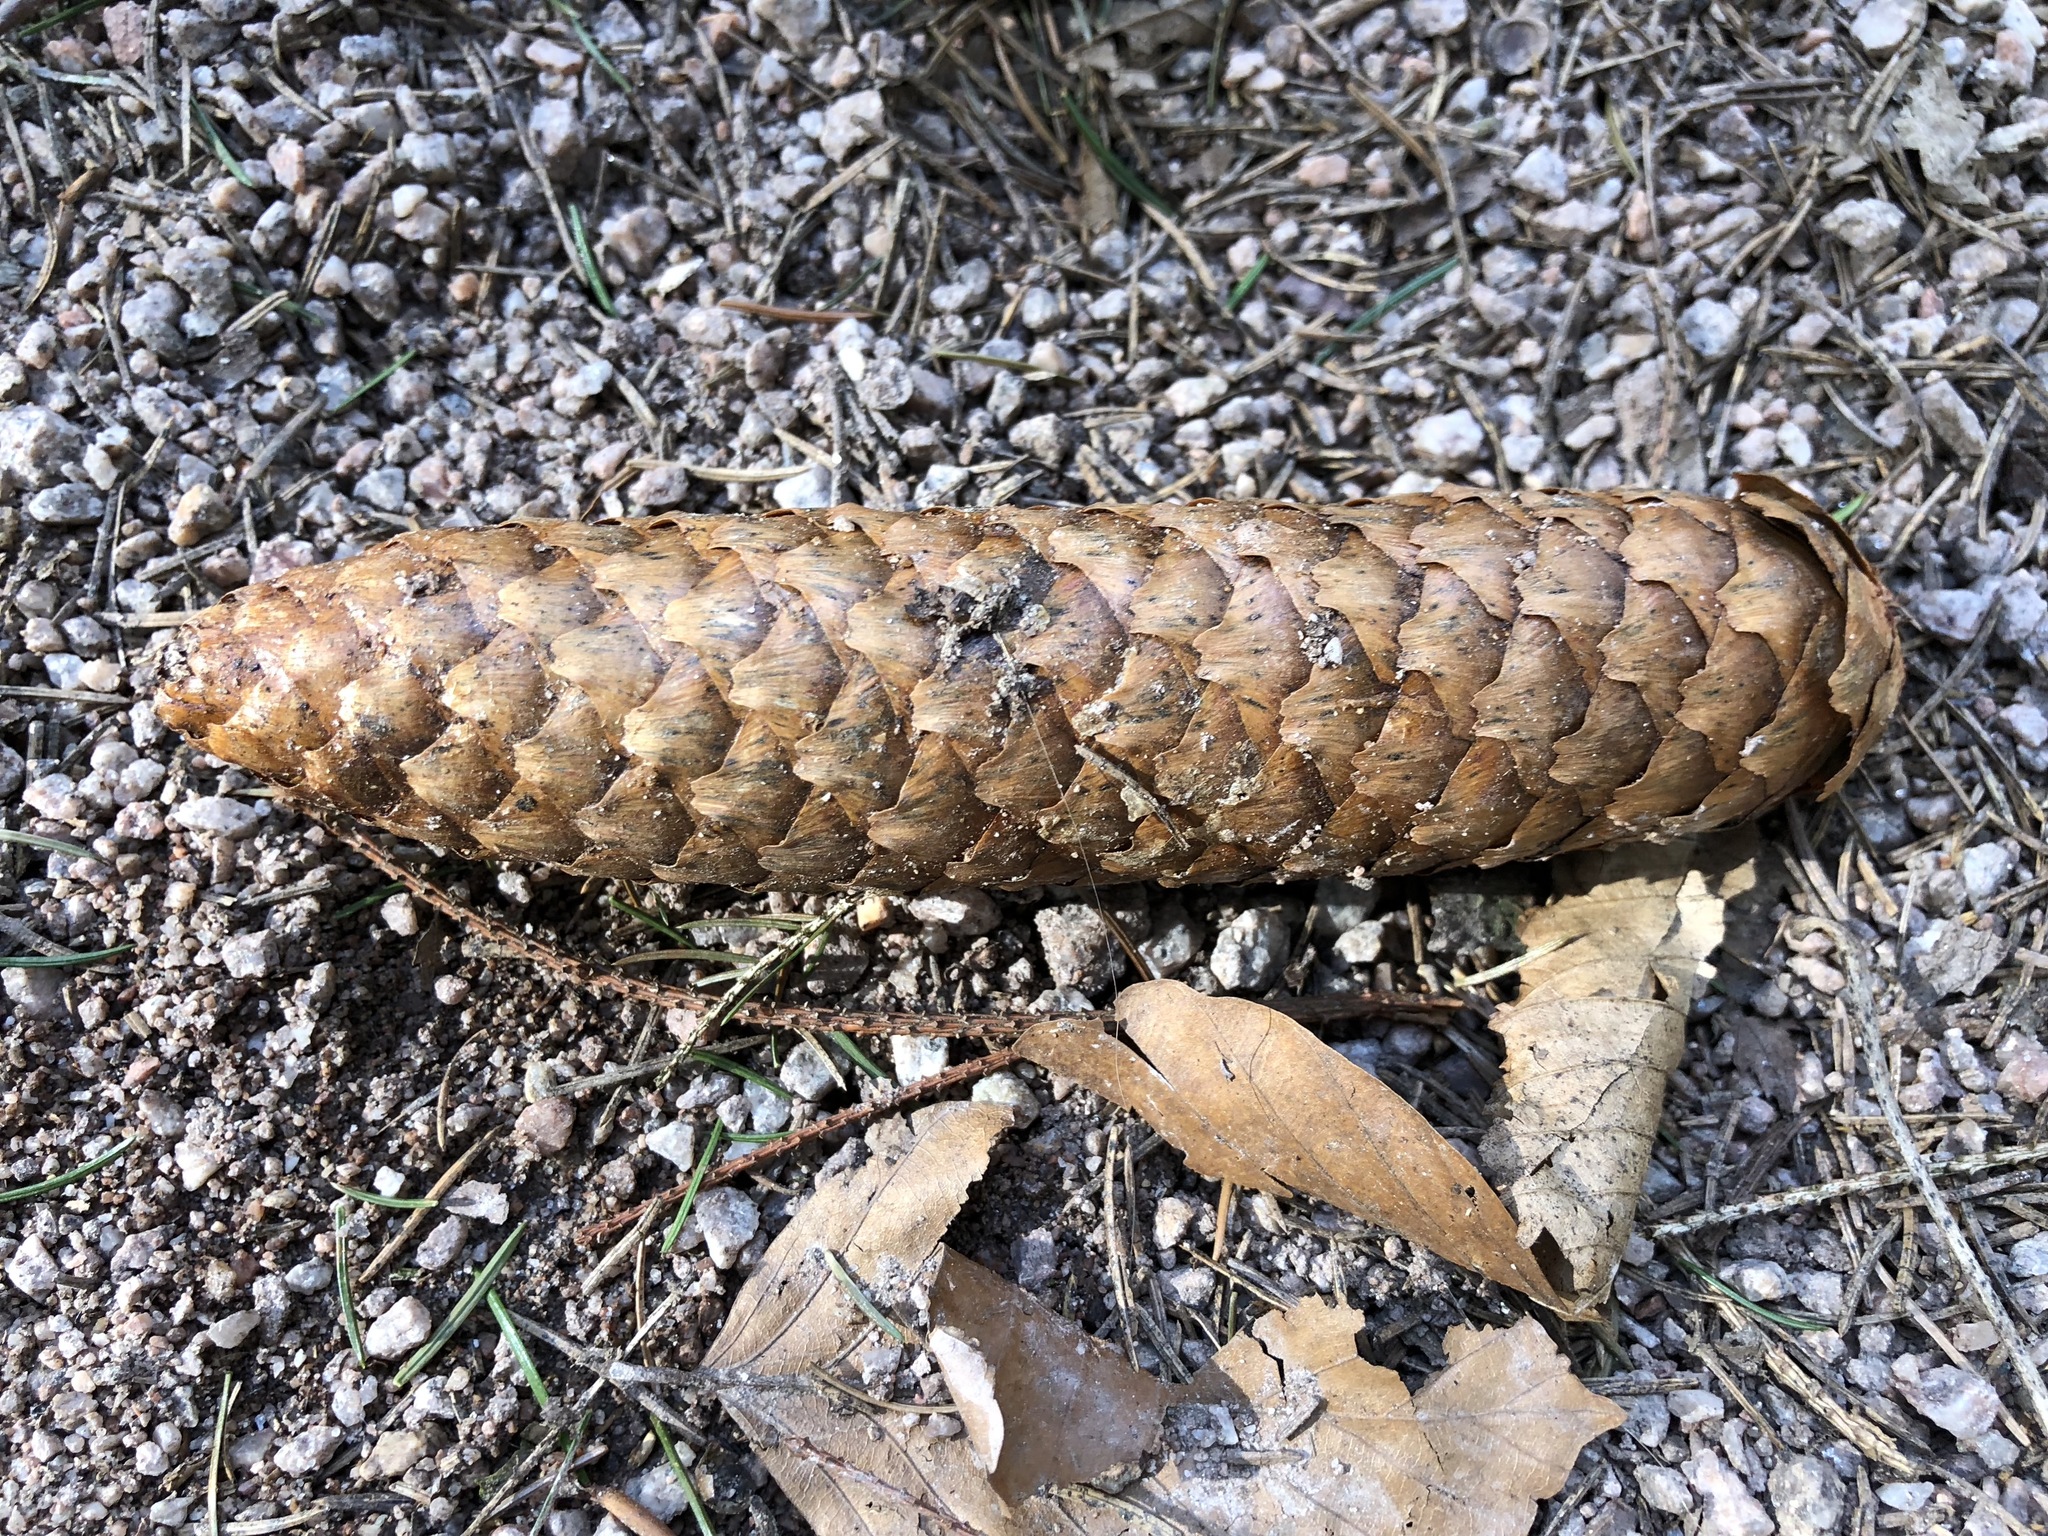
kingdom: Plantae
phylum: Tracheophyta
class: Pinopsida
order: Pinales
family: Pinaceae
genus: Picea
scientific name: Picea abies
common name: Norway spruce
